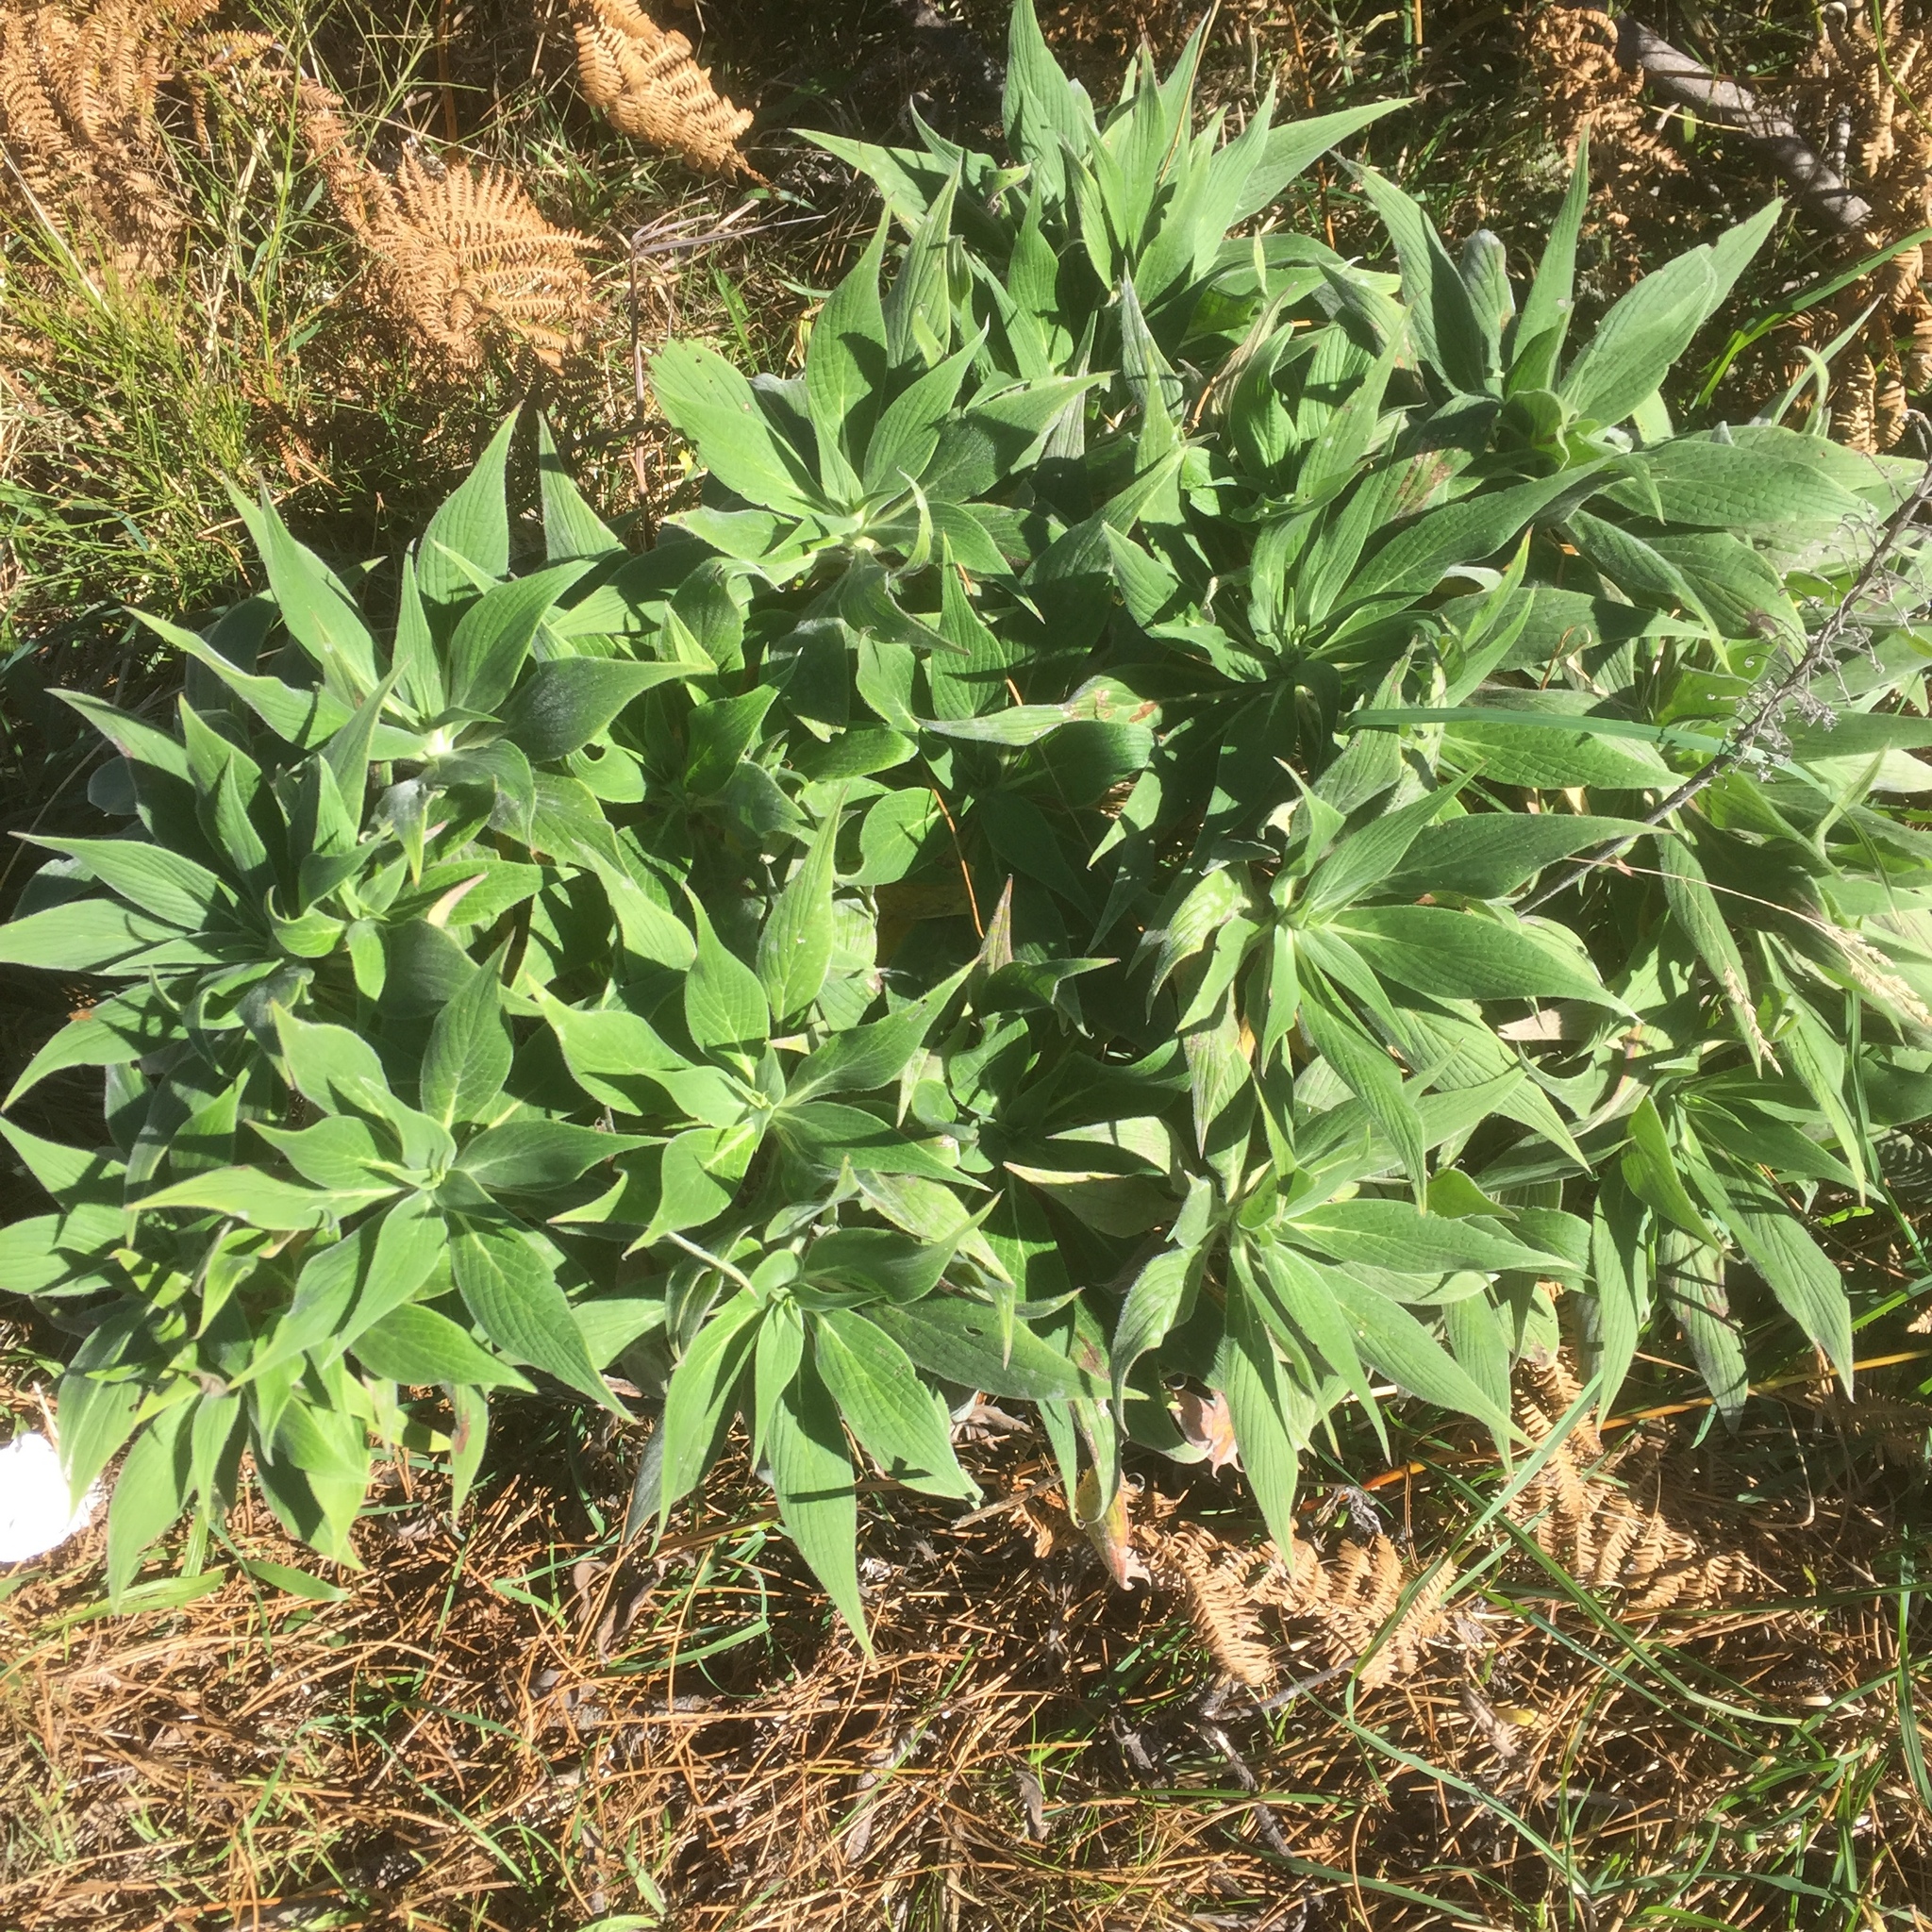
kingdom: Plantae
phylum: Tracheophyta
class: Magnoliopsida
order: Boraginales
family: Boraginaceae
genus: Echium
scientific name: Echium candicans
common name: Pride of madeira
